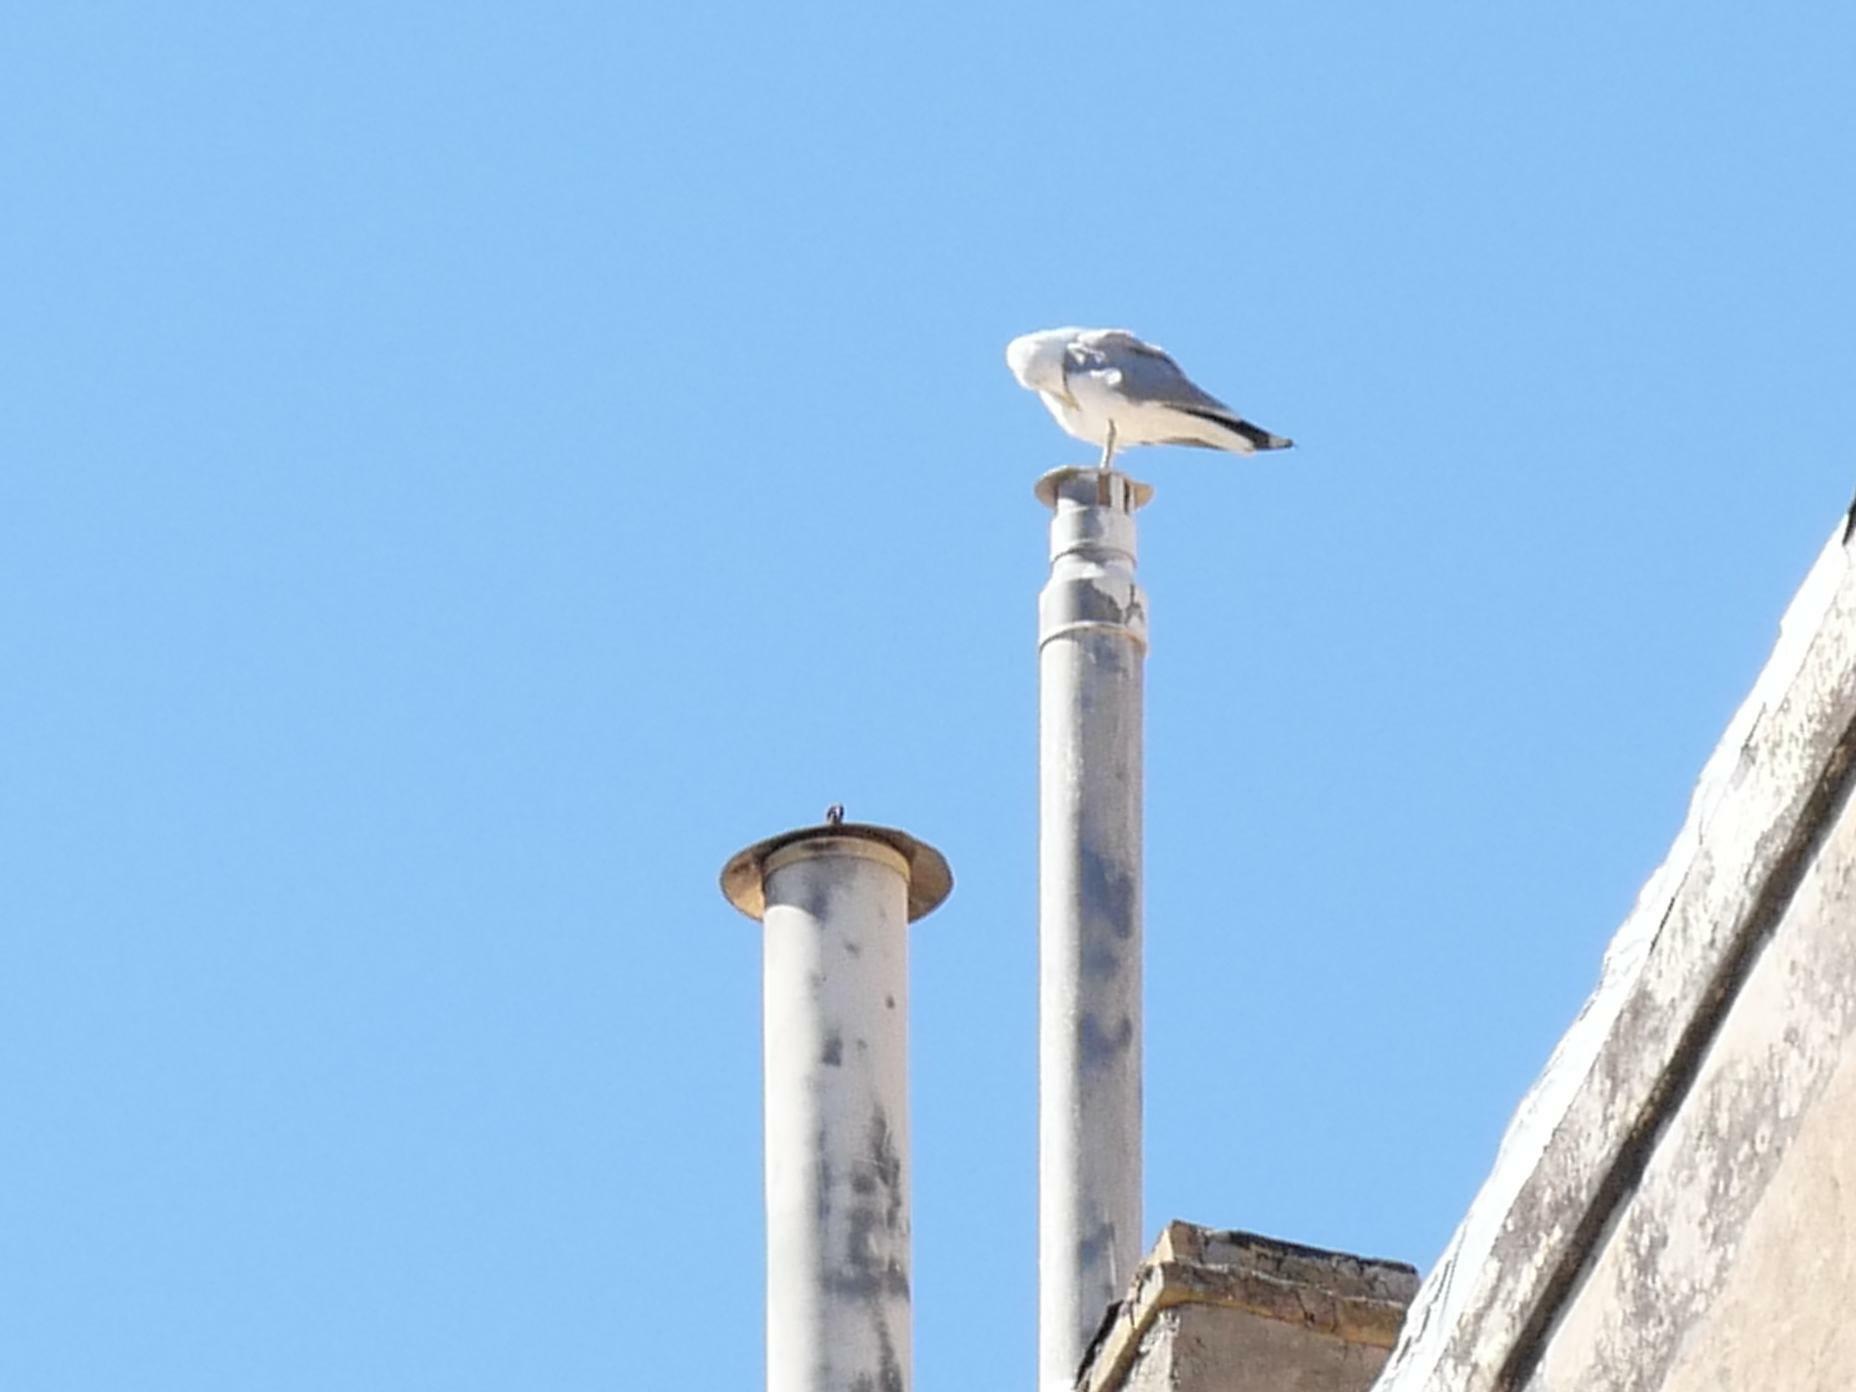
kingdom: Animalia
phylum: Chordata
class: Aves
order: Charadriiformes
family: Laridae
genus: Larus
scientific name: Larus michahellis
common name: Yellow-legged gull
